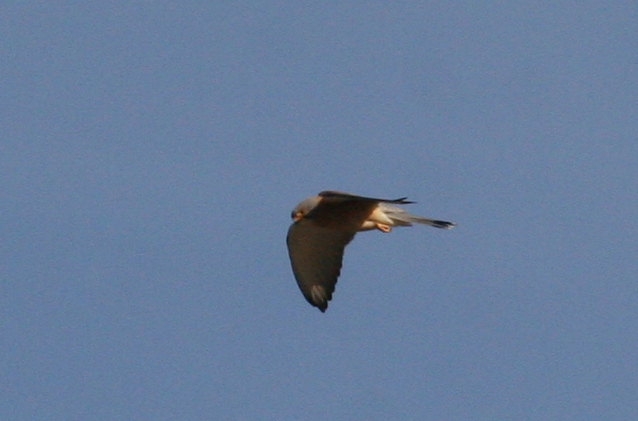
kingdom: Animalia
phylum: Chordata
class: Aves
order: Falconiformes
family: Falconidae
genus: Falco
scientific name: Falco naumanni
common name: Lesser kestrel
